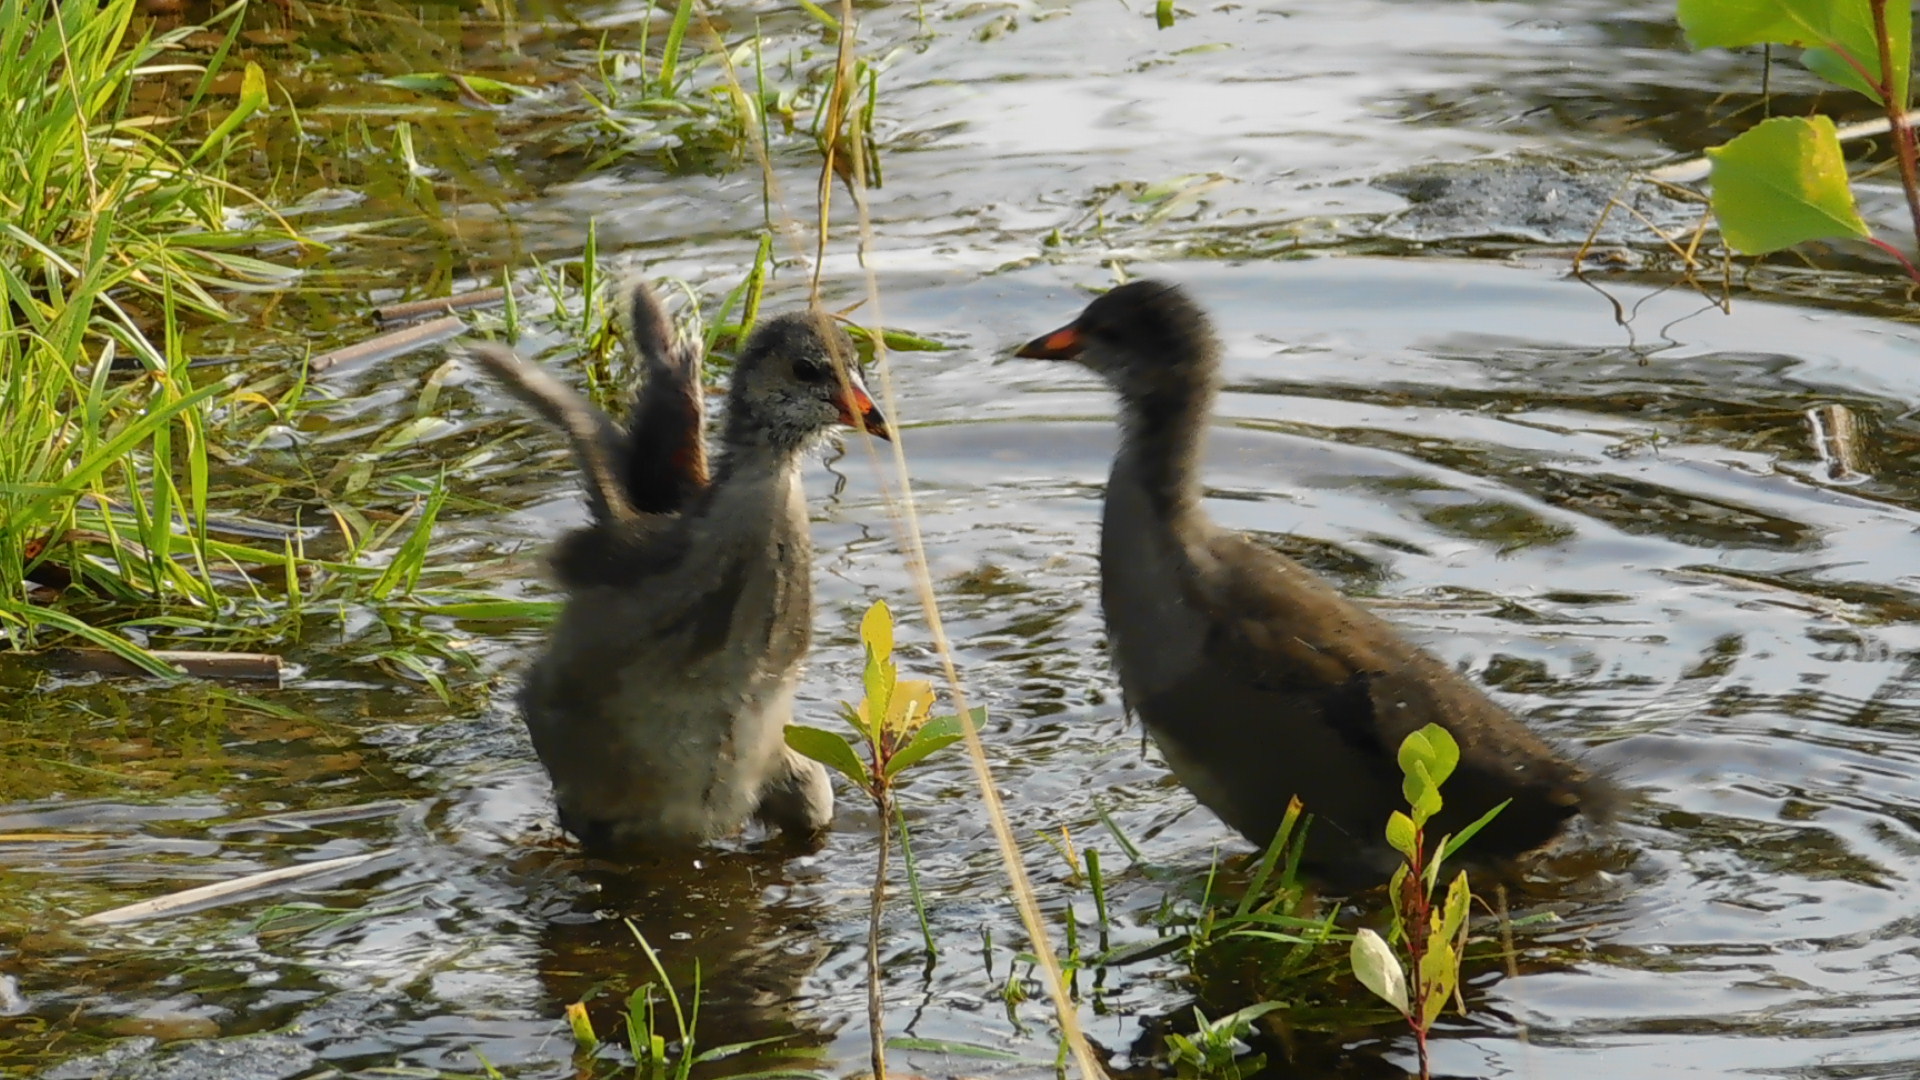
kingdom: Animalia
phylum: Chordata
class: Aves
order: Gruiformes
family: Rallidae
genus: Gallinula
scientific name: Gallinula chloropus
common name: Common moorhen
